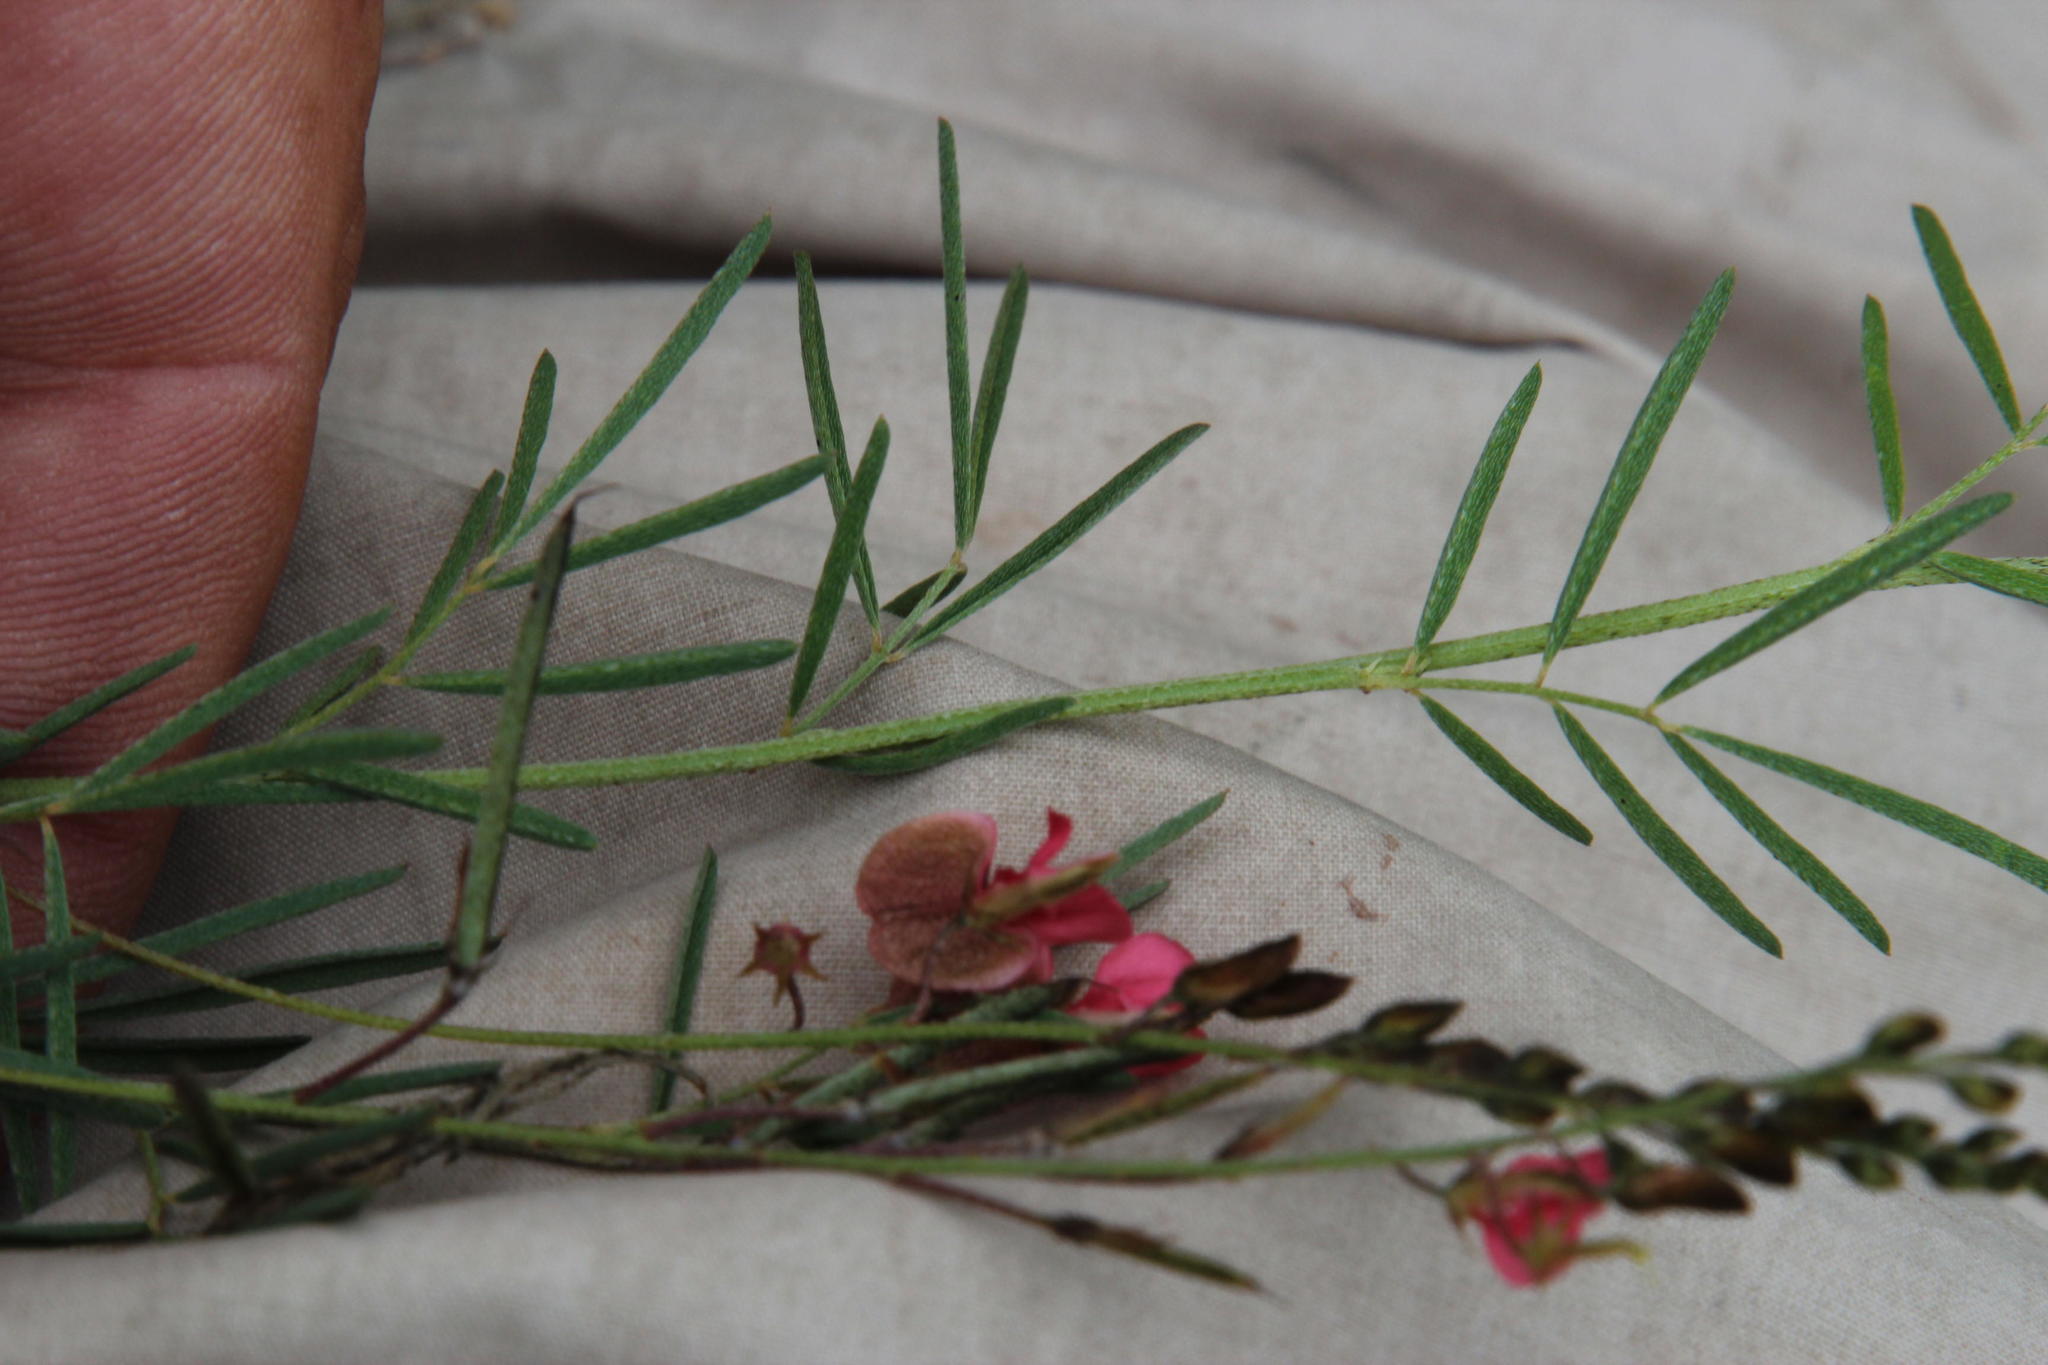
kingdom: Plantae
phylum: Tracheophyta
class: Magnoliopsida
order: Fabales
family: Fabaceae
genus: Indigofera
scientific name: Indigofera punctata
